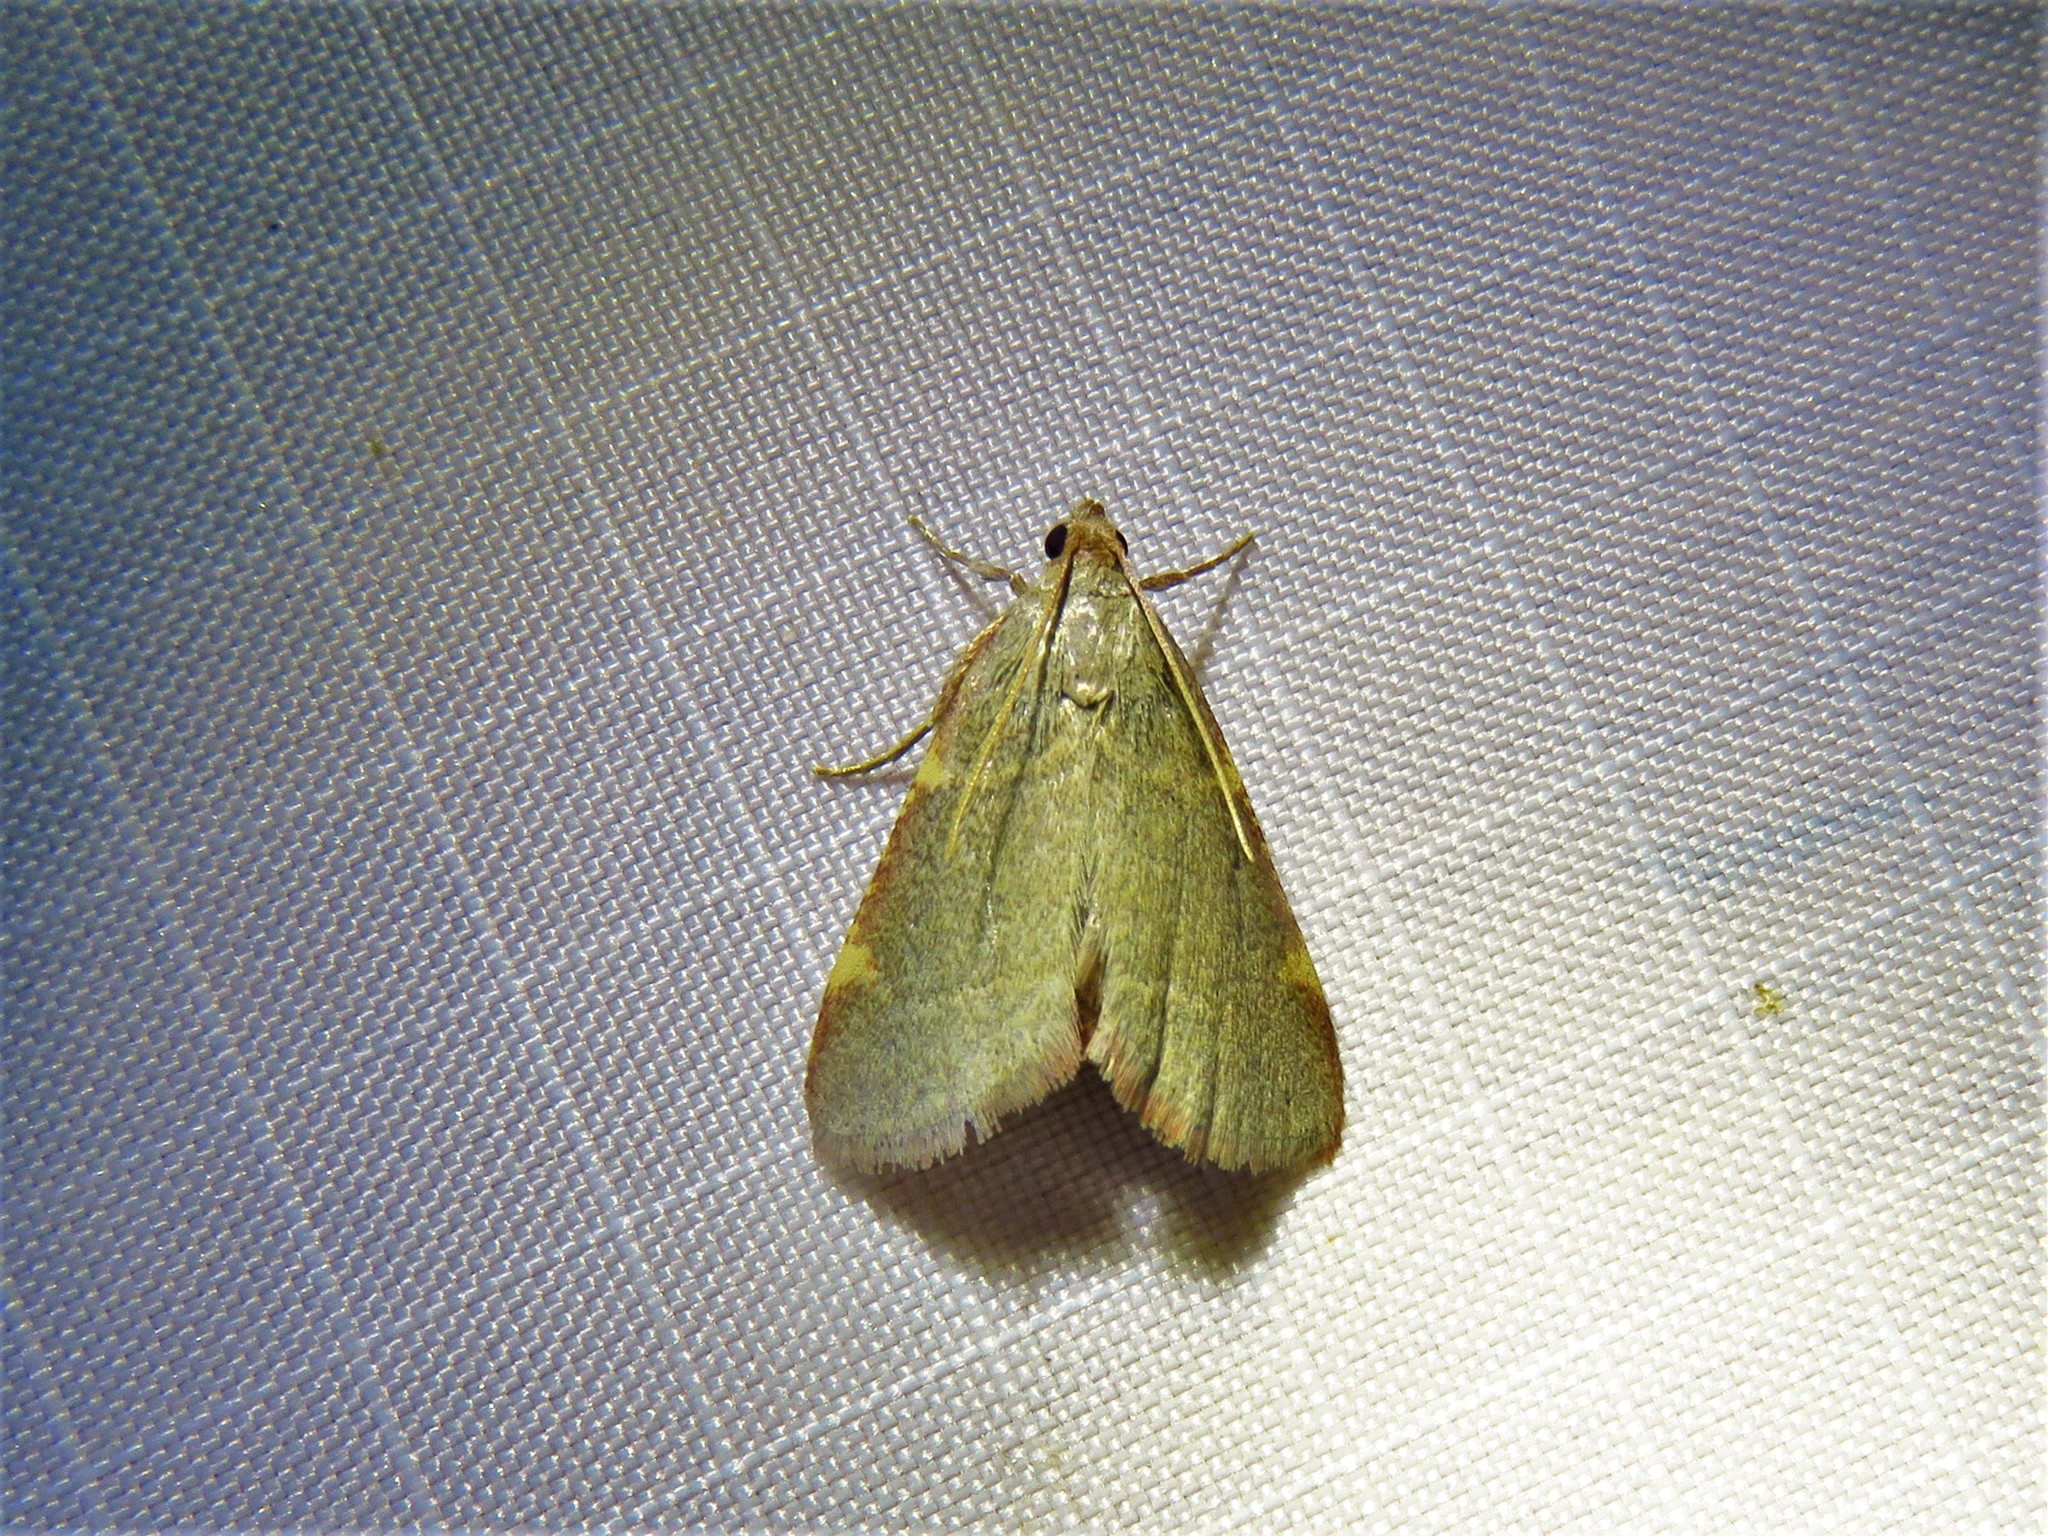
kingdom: Animalia
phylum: Arthropoda
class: Insecta
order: Lepidoptera
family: Pyralidae
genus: Hypsopygia
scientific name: Hypsopygia binodulalis
